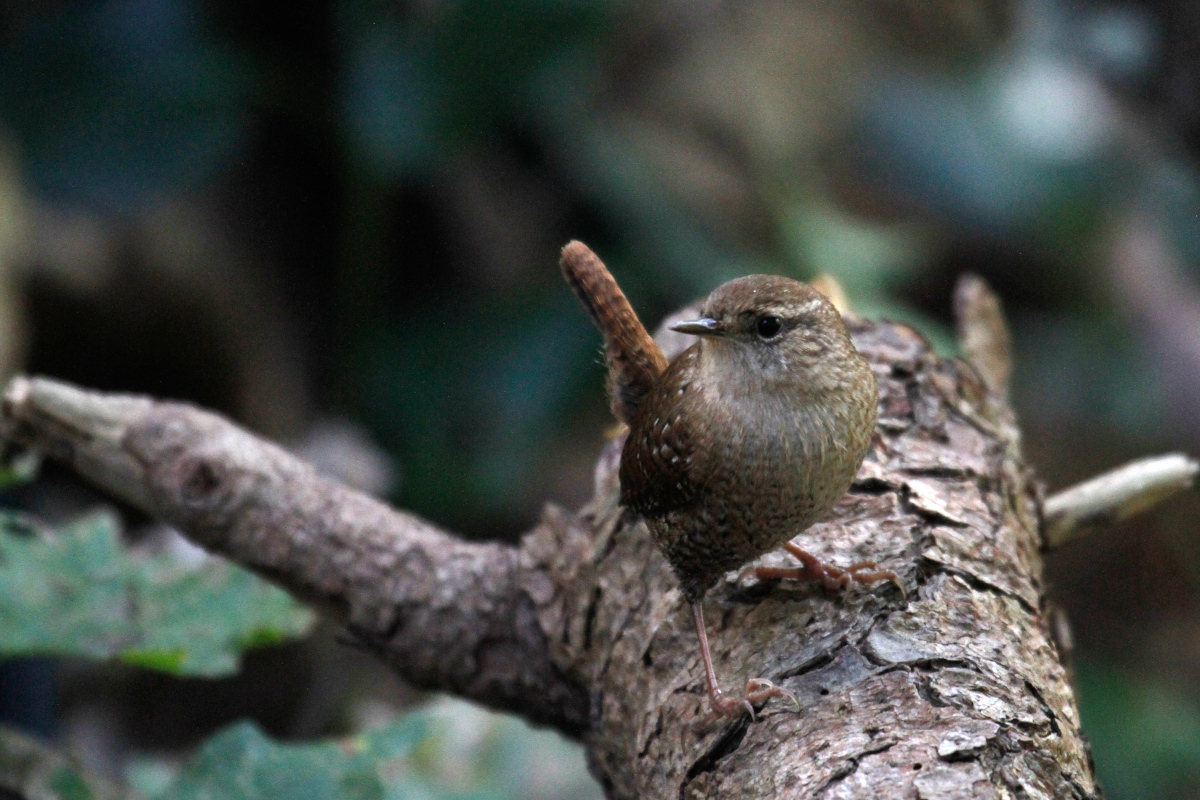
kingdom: Animalia
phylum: Chordata
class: Aves
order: Passeriformes
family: Troglodytidae
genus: Troglodytes
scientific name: Troglodytes hiemalis
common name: Winter wren
